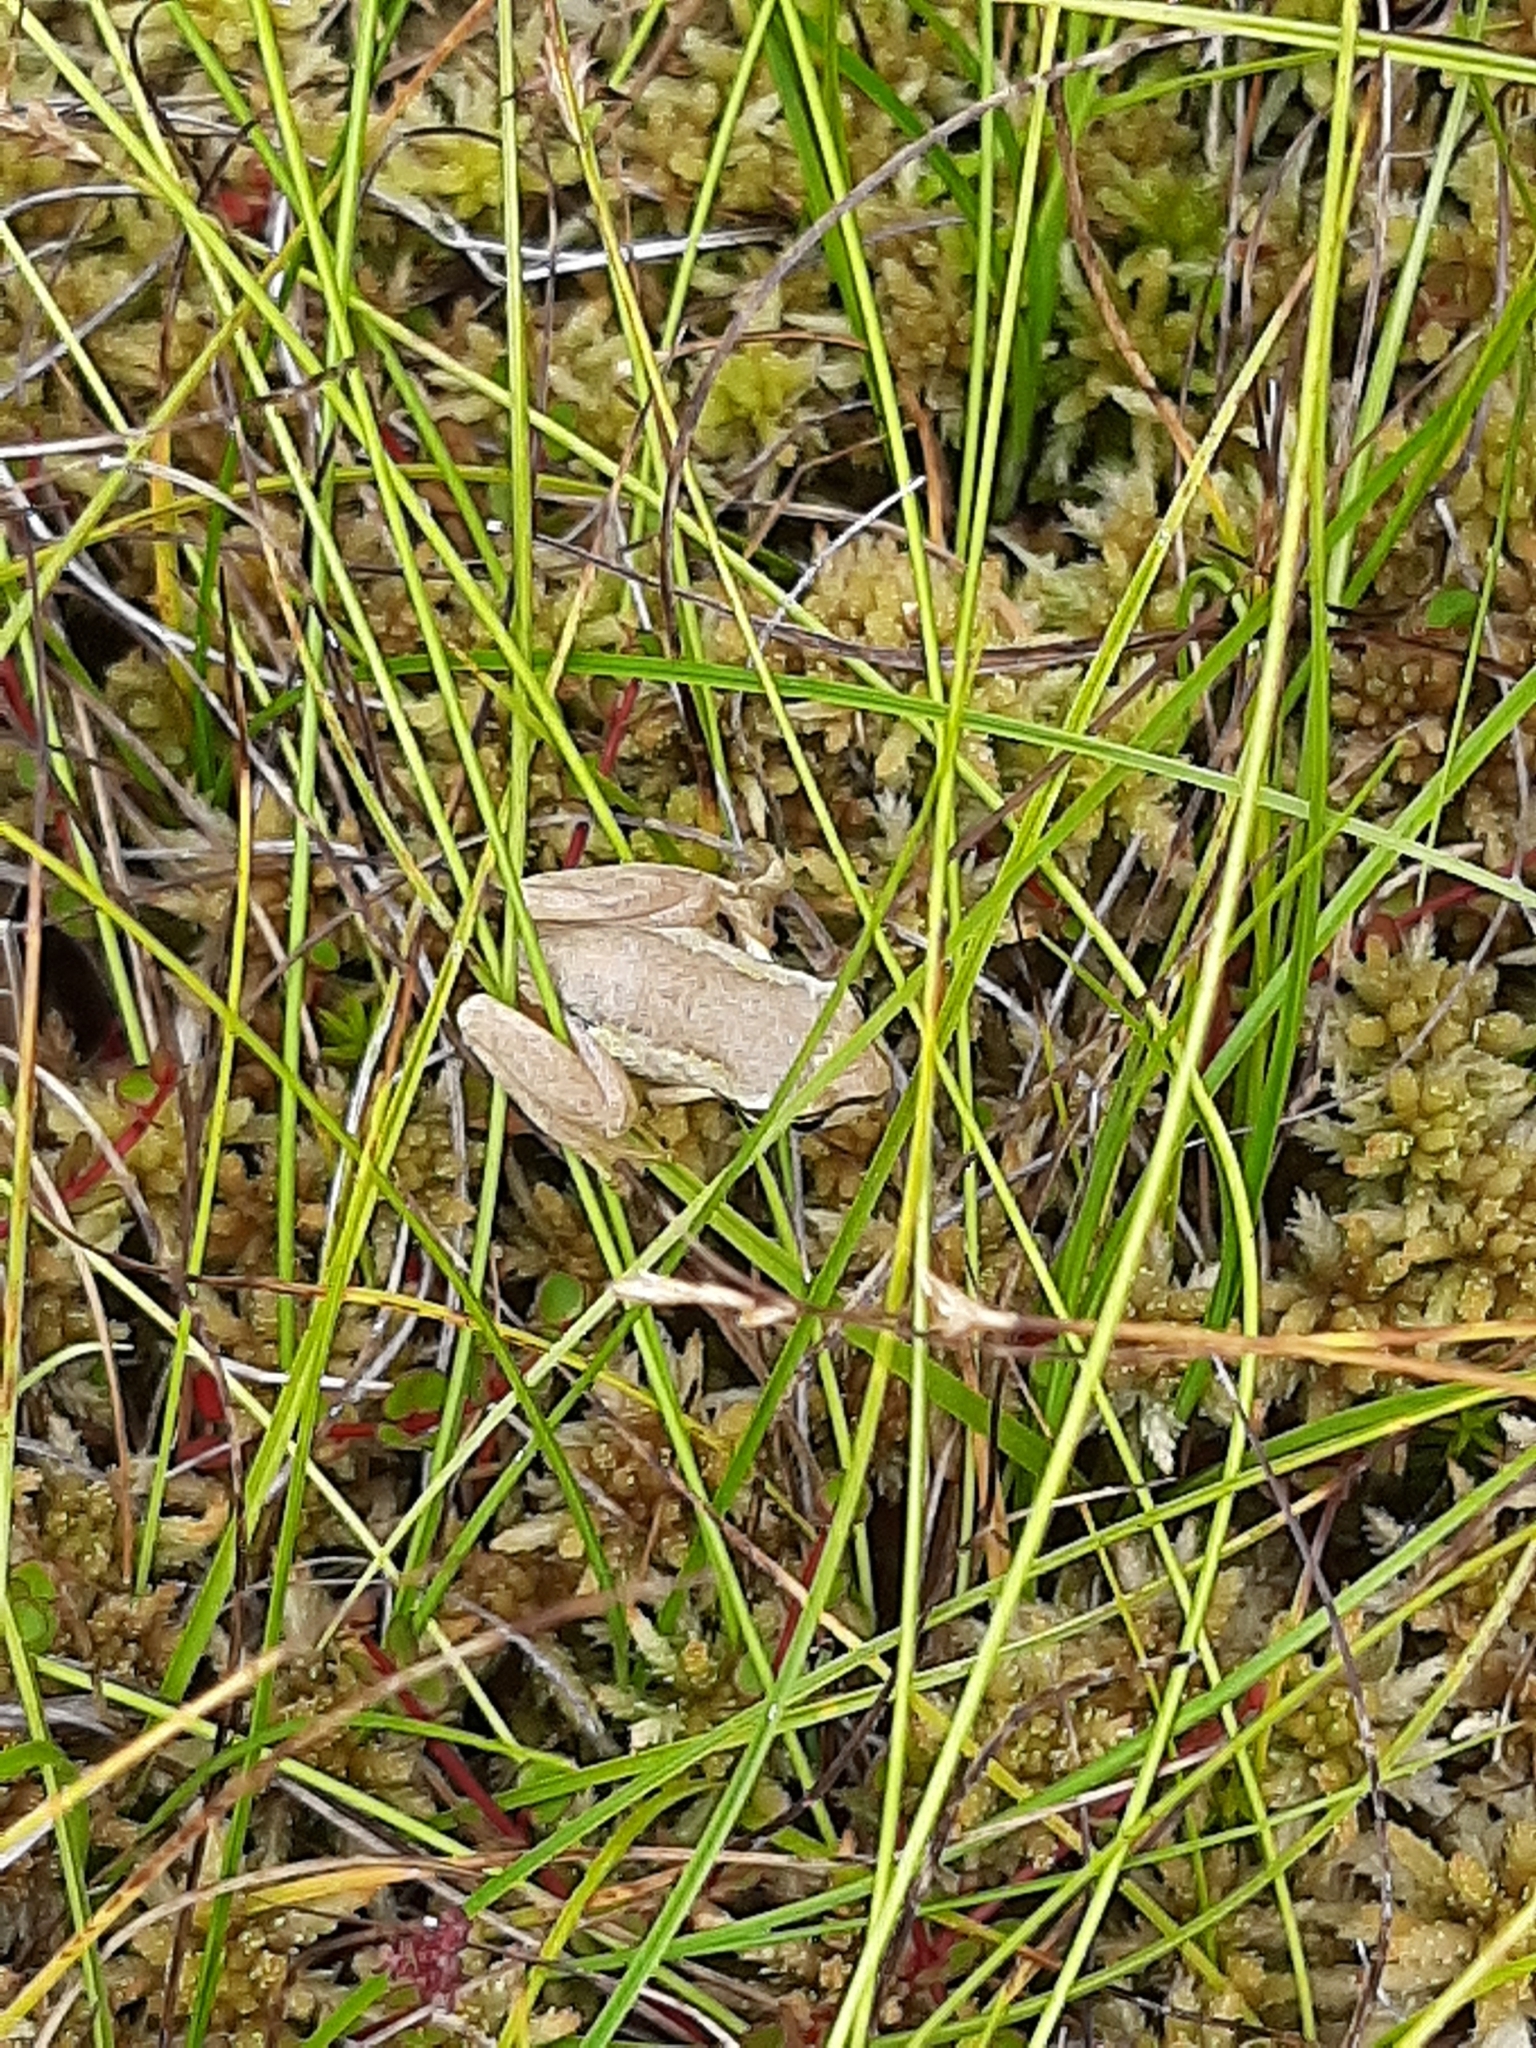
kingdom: Animalia
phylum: Chordata
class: Amphibia
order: Anura
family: Pelodryadidae
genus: Litoria
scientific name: Litoria ewingii
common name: Southern brown tree frog
